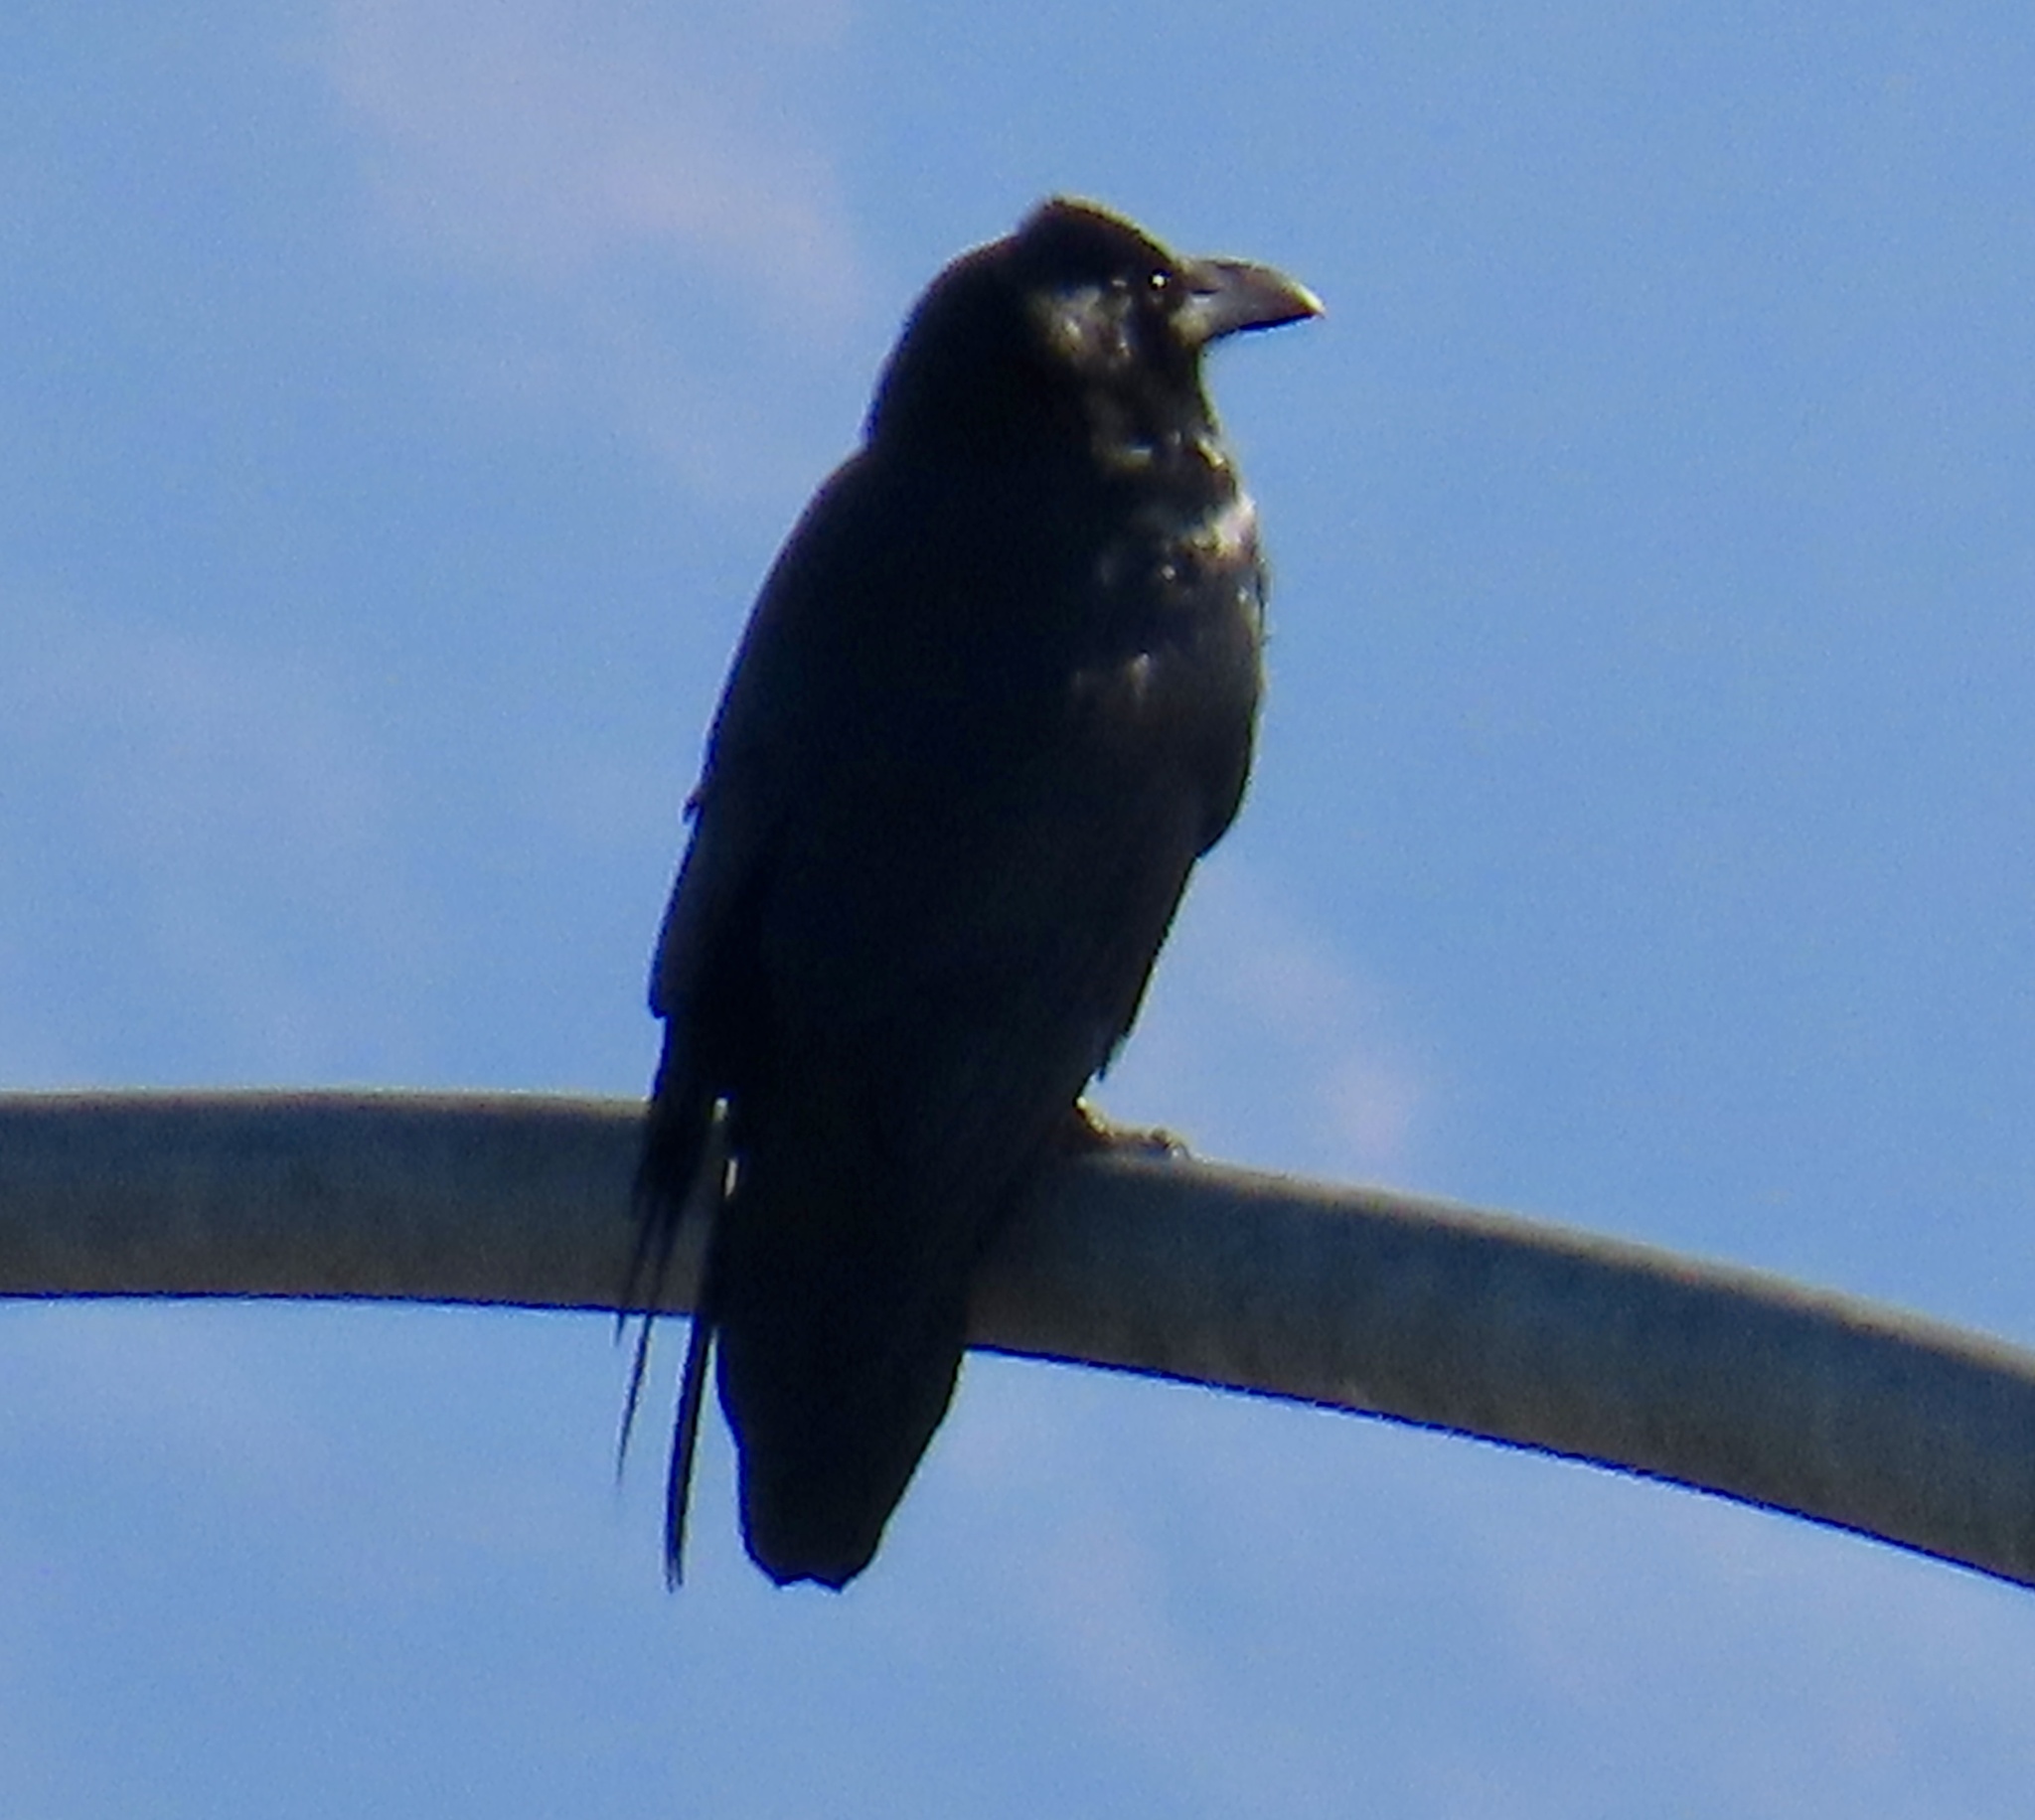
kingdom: Animalia
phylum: Chordata
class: Aves
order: Passeriformes
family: Corvidae
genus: Corvus
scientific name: Corvus corax
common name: Common raven
